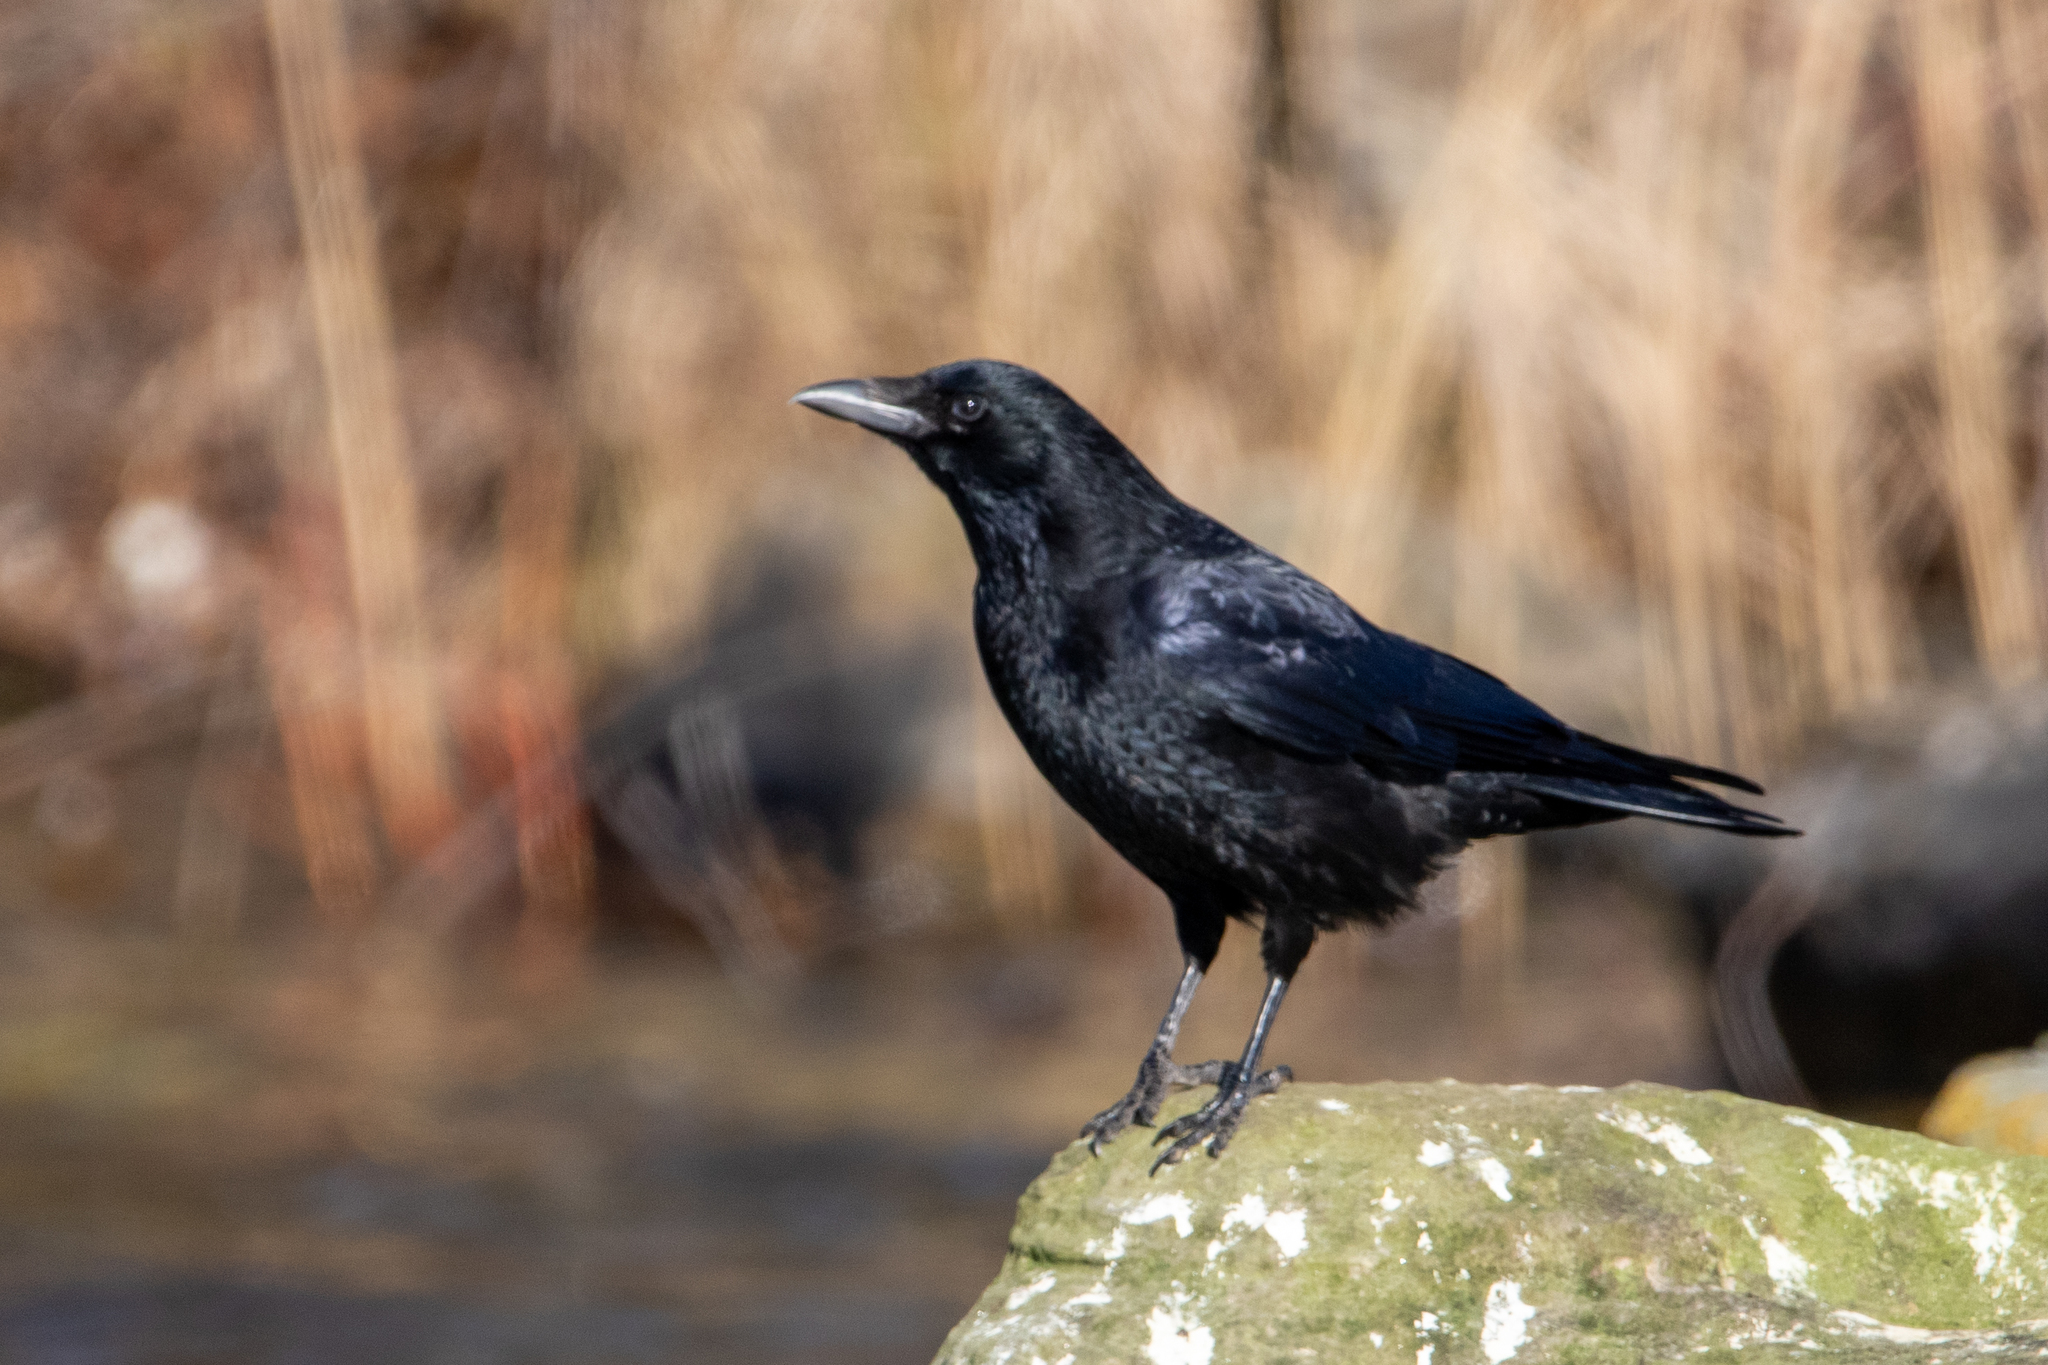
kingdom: Animalia
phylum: Chordata
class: Aves
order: Passeriformes
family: Corvidae
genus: Corvus
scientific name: Corvus corone
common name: Carrion crow
